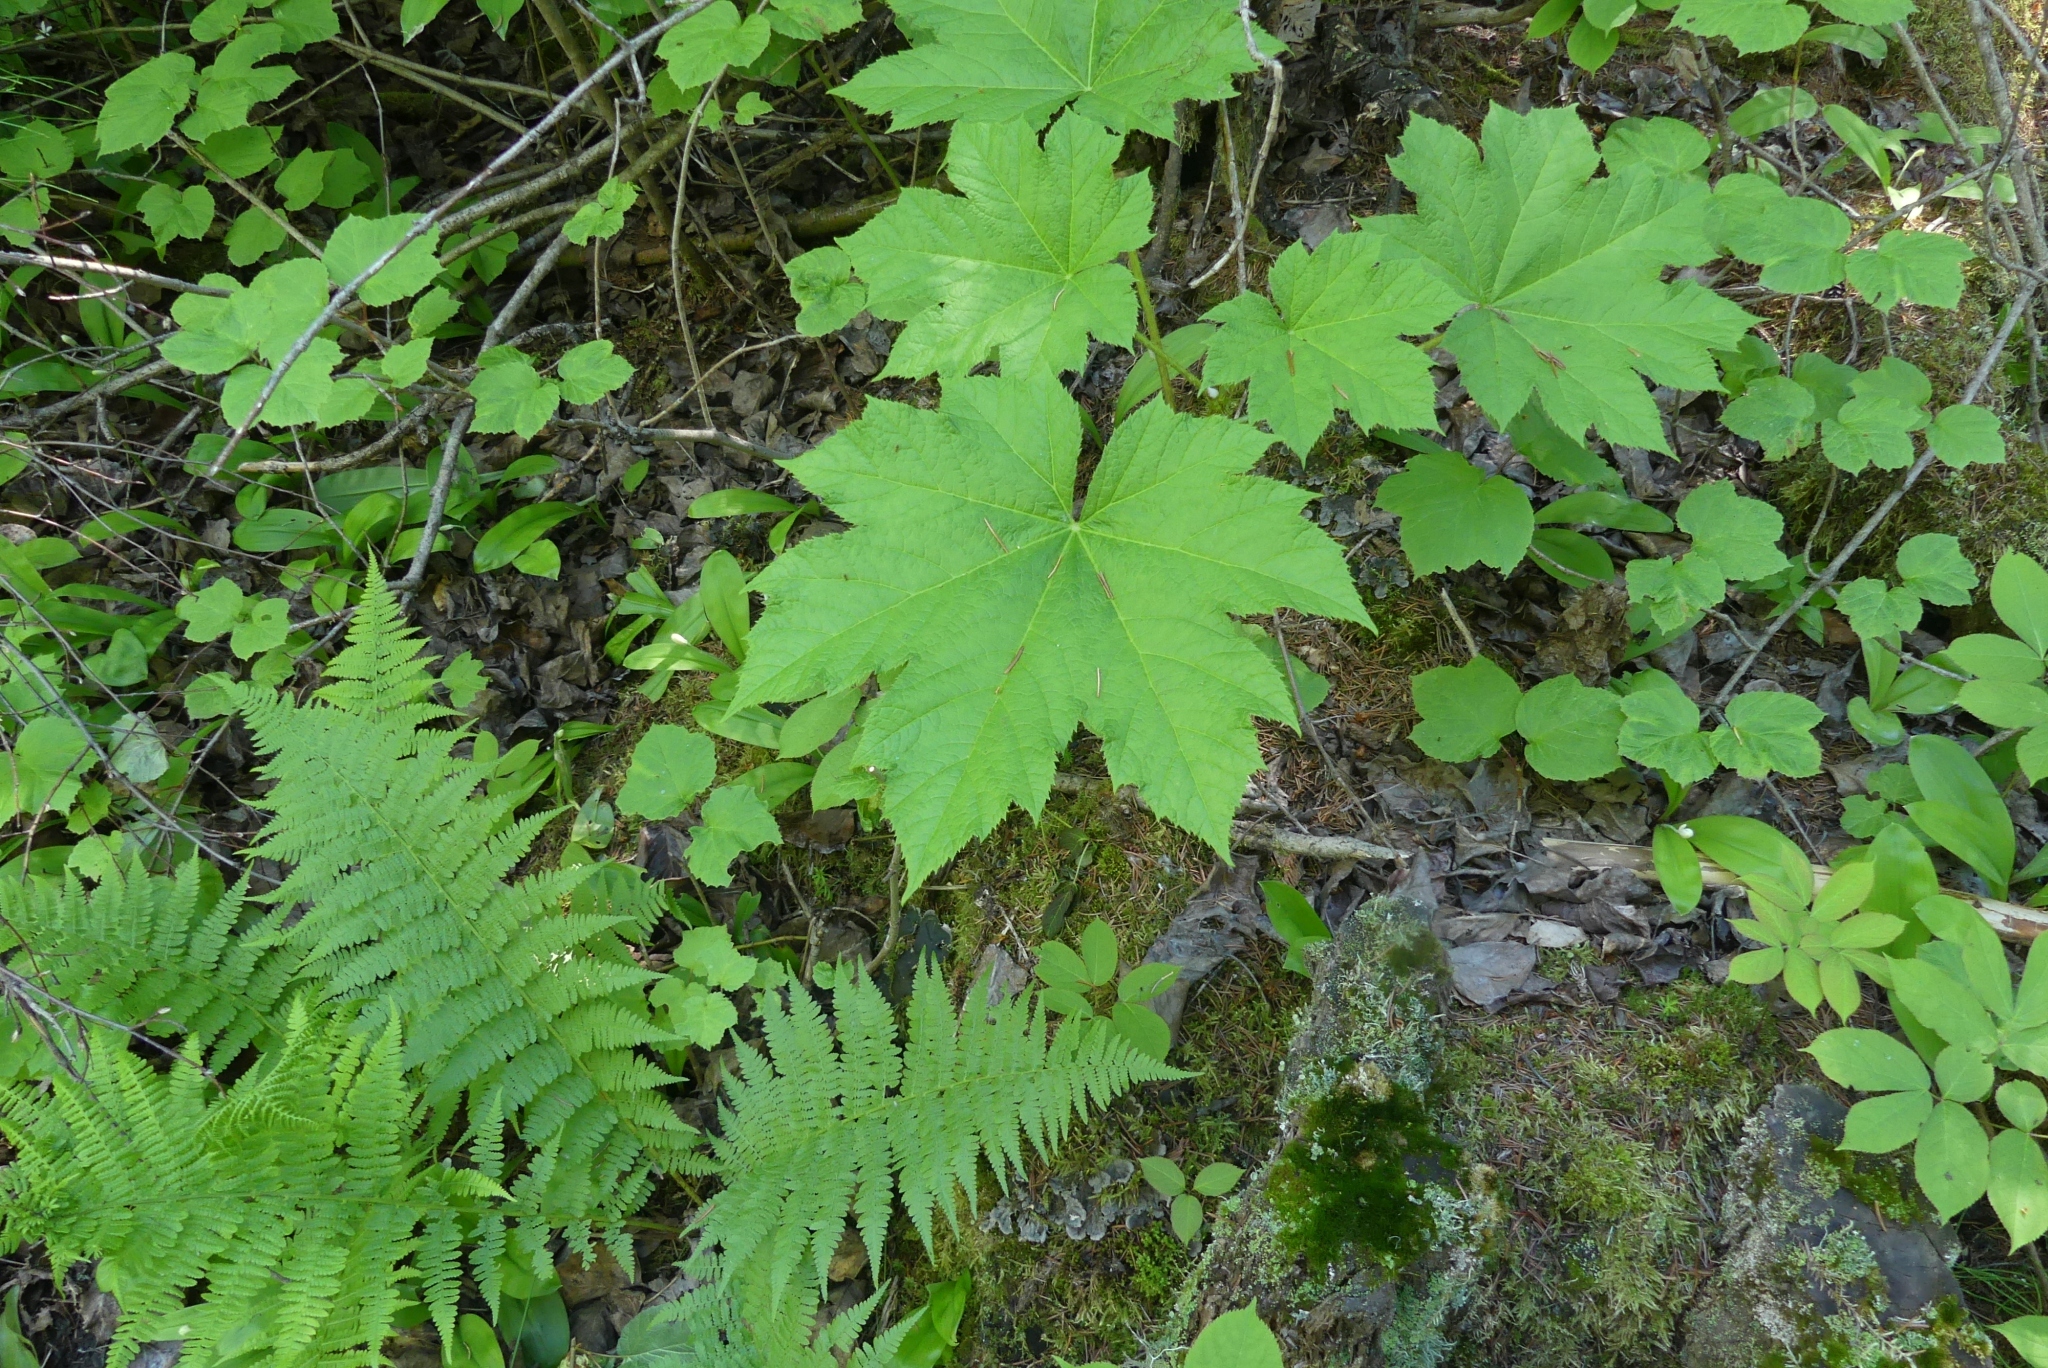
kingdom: Plantae
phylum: Tracheophyta
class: Magnoliopsida
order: Apiales
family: Araliaceae
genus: Oplopanax
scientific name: Oplopanax horridus
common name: Devil's walking-stick
